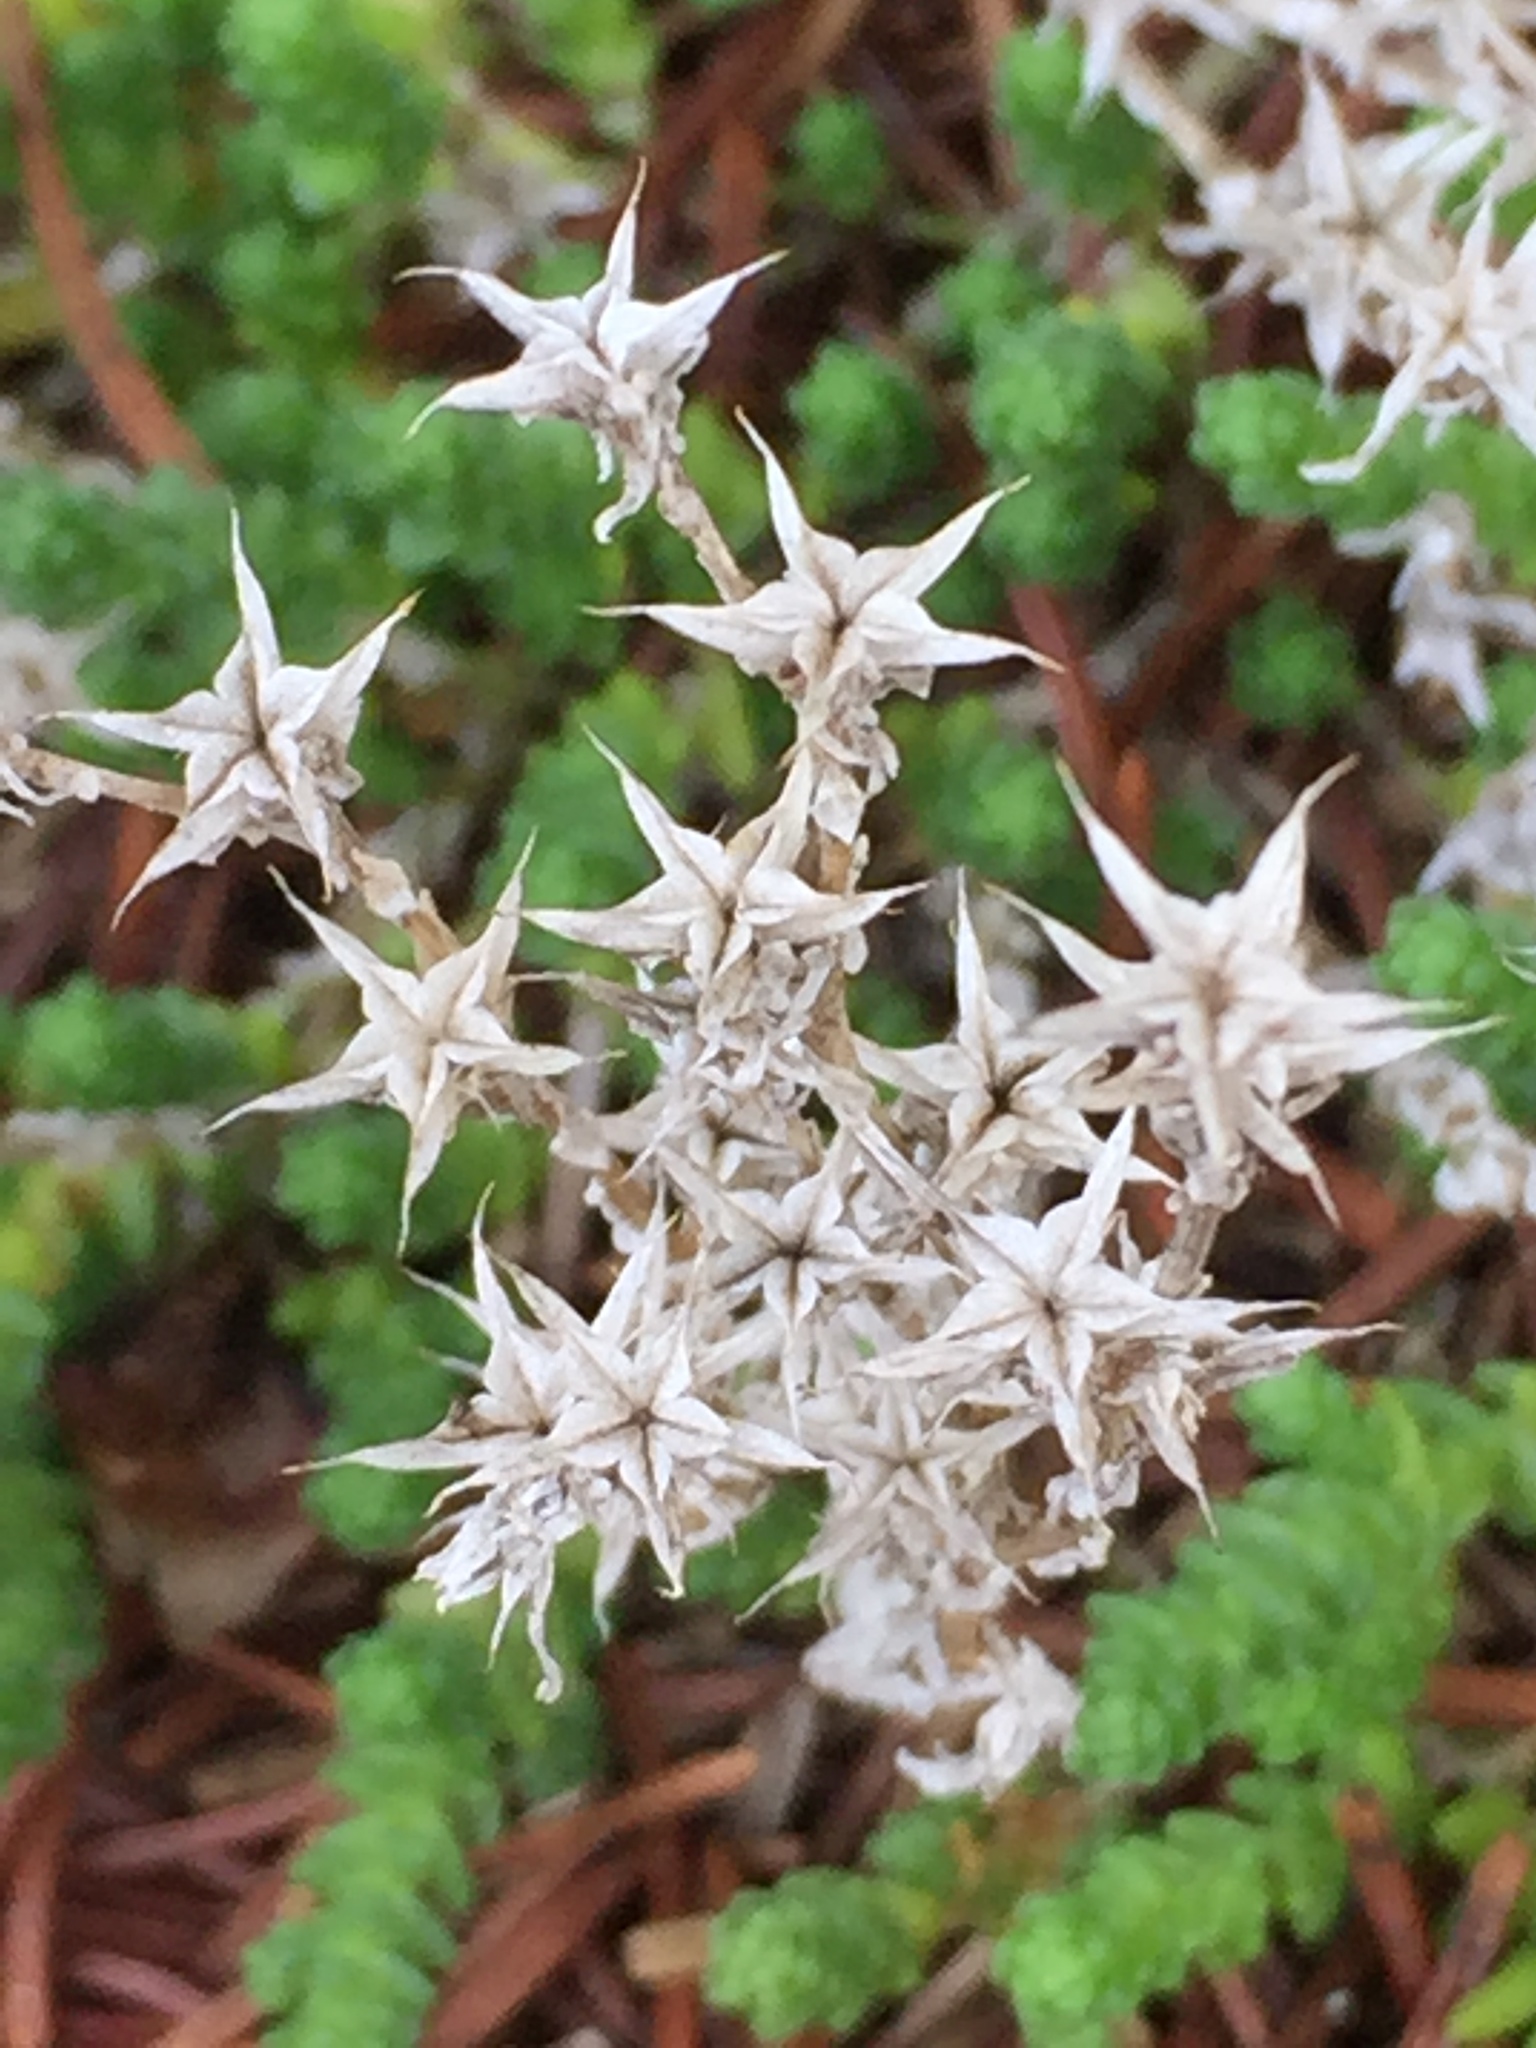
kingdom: Plantae
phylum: Tracheophyta
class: Magnoliopsida
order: Saxifragales
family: Crassulaceae
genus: Sedum
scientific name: Sedum acre
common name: Biting stonecrop
